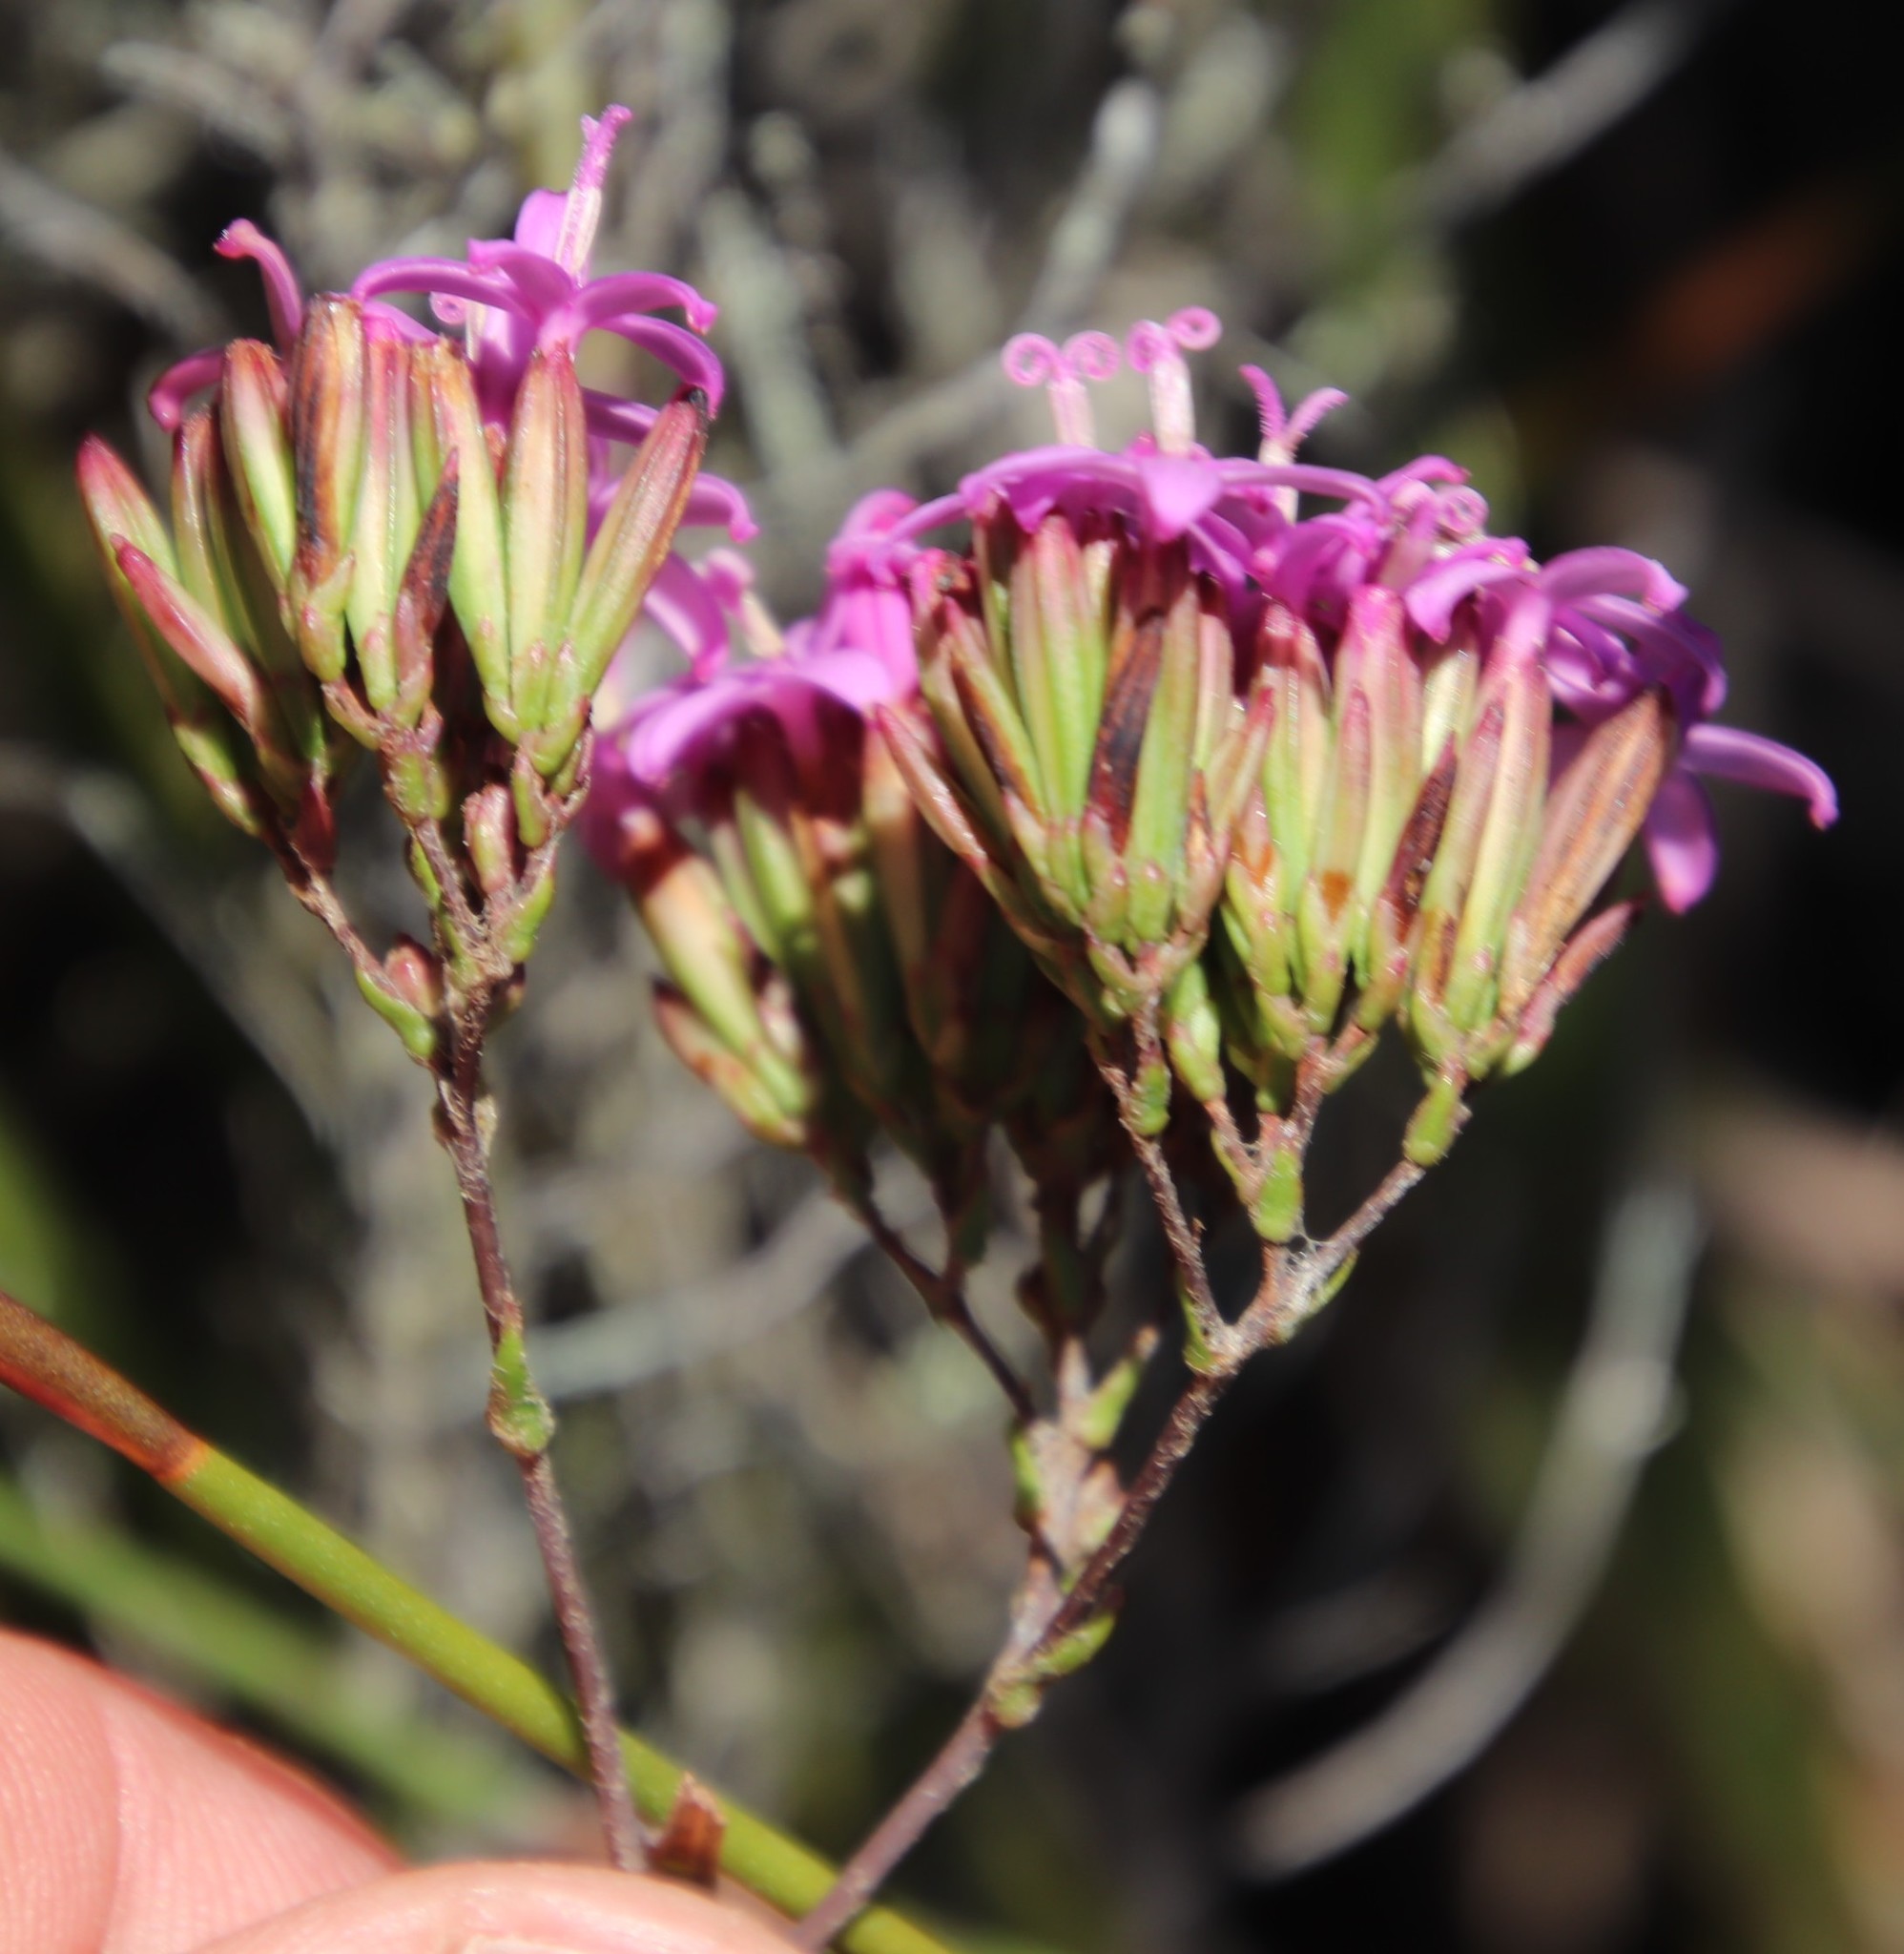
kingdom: Plantae
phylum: Tracheophyta
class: Magnoliopsida
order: Asterales
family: Asteraceae
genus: Corymbium
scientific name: Corymbium glabrum
